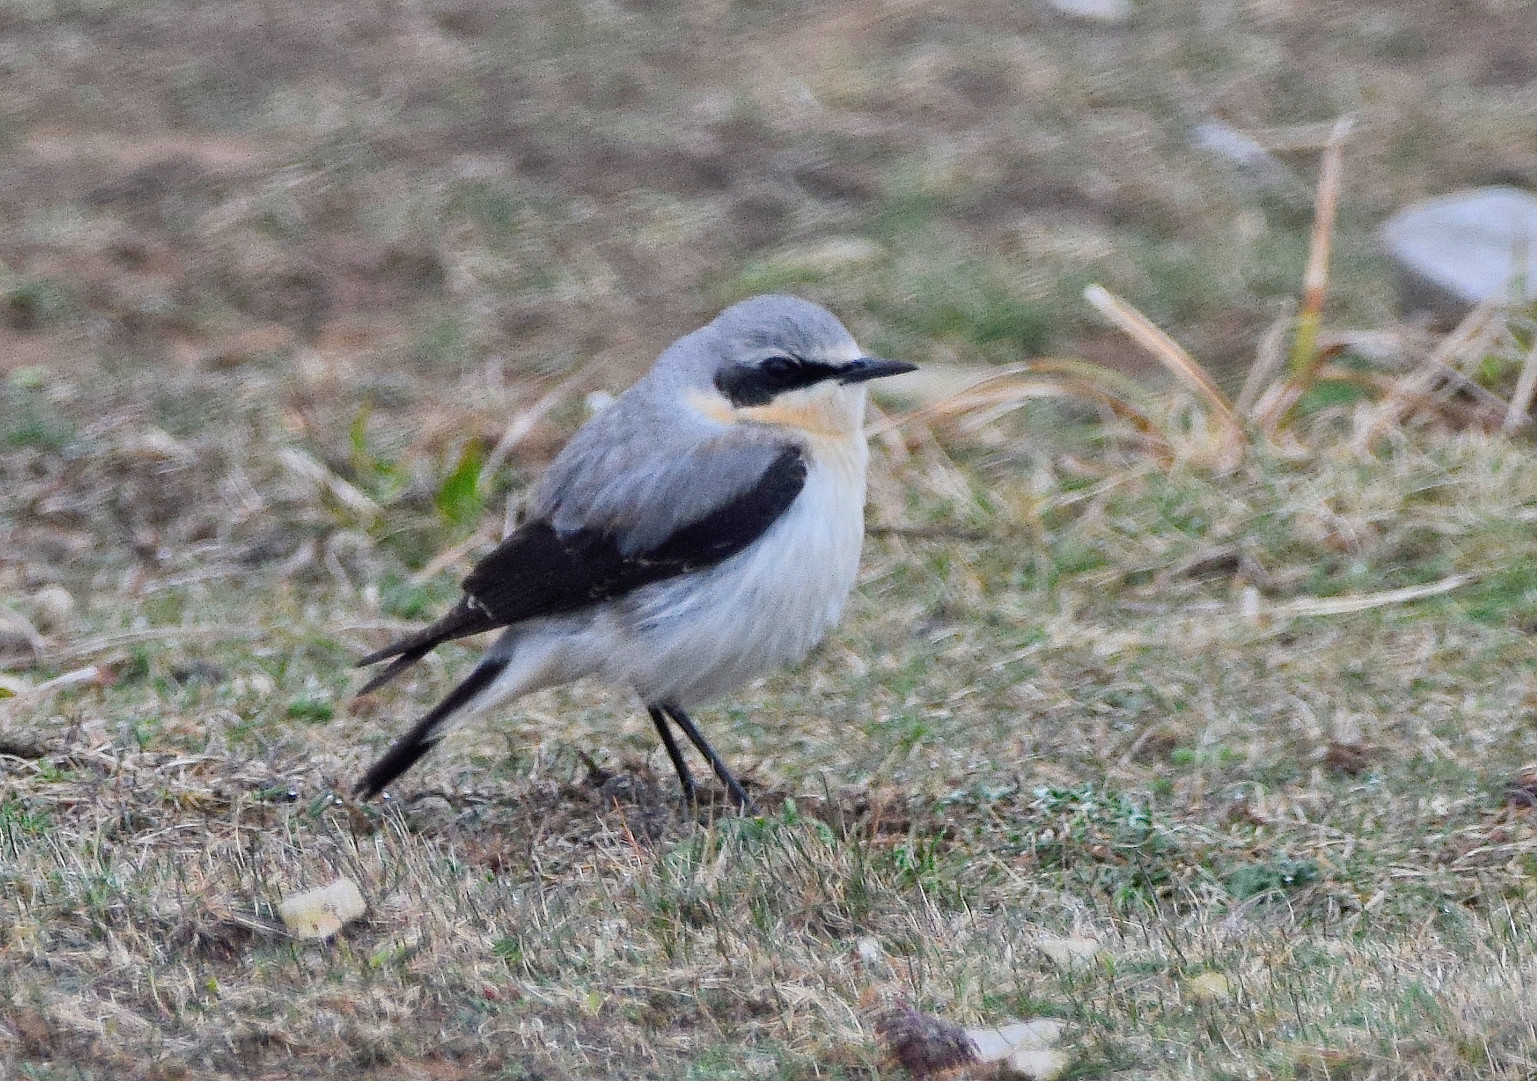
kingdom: Animalia
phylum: Chordata
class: Aves
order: Passeriformes
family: Muscicapidae
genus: Oenanthe
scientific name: Oenanthe oenanthe
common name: Northern wheatear
